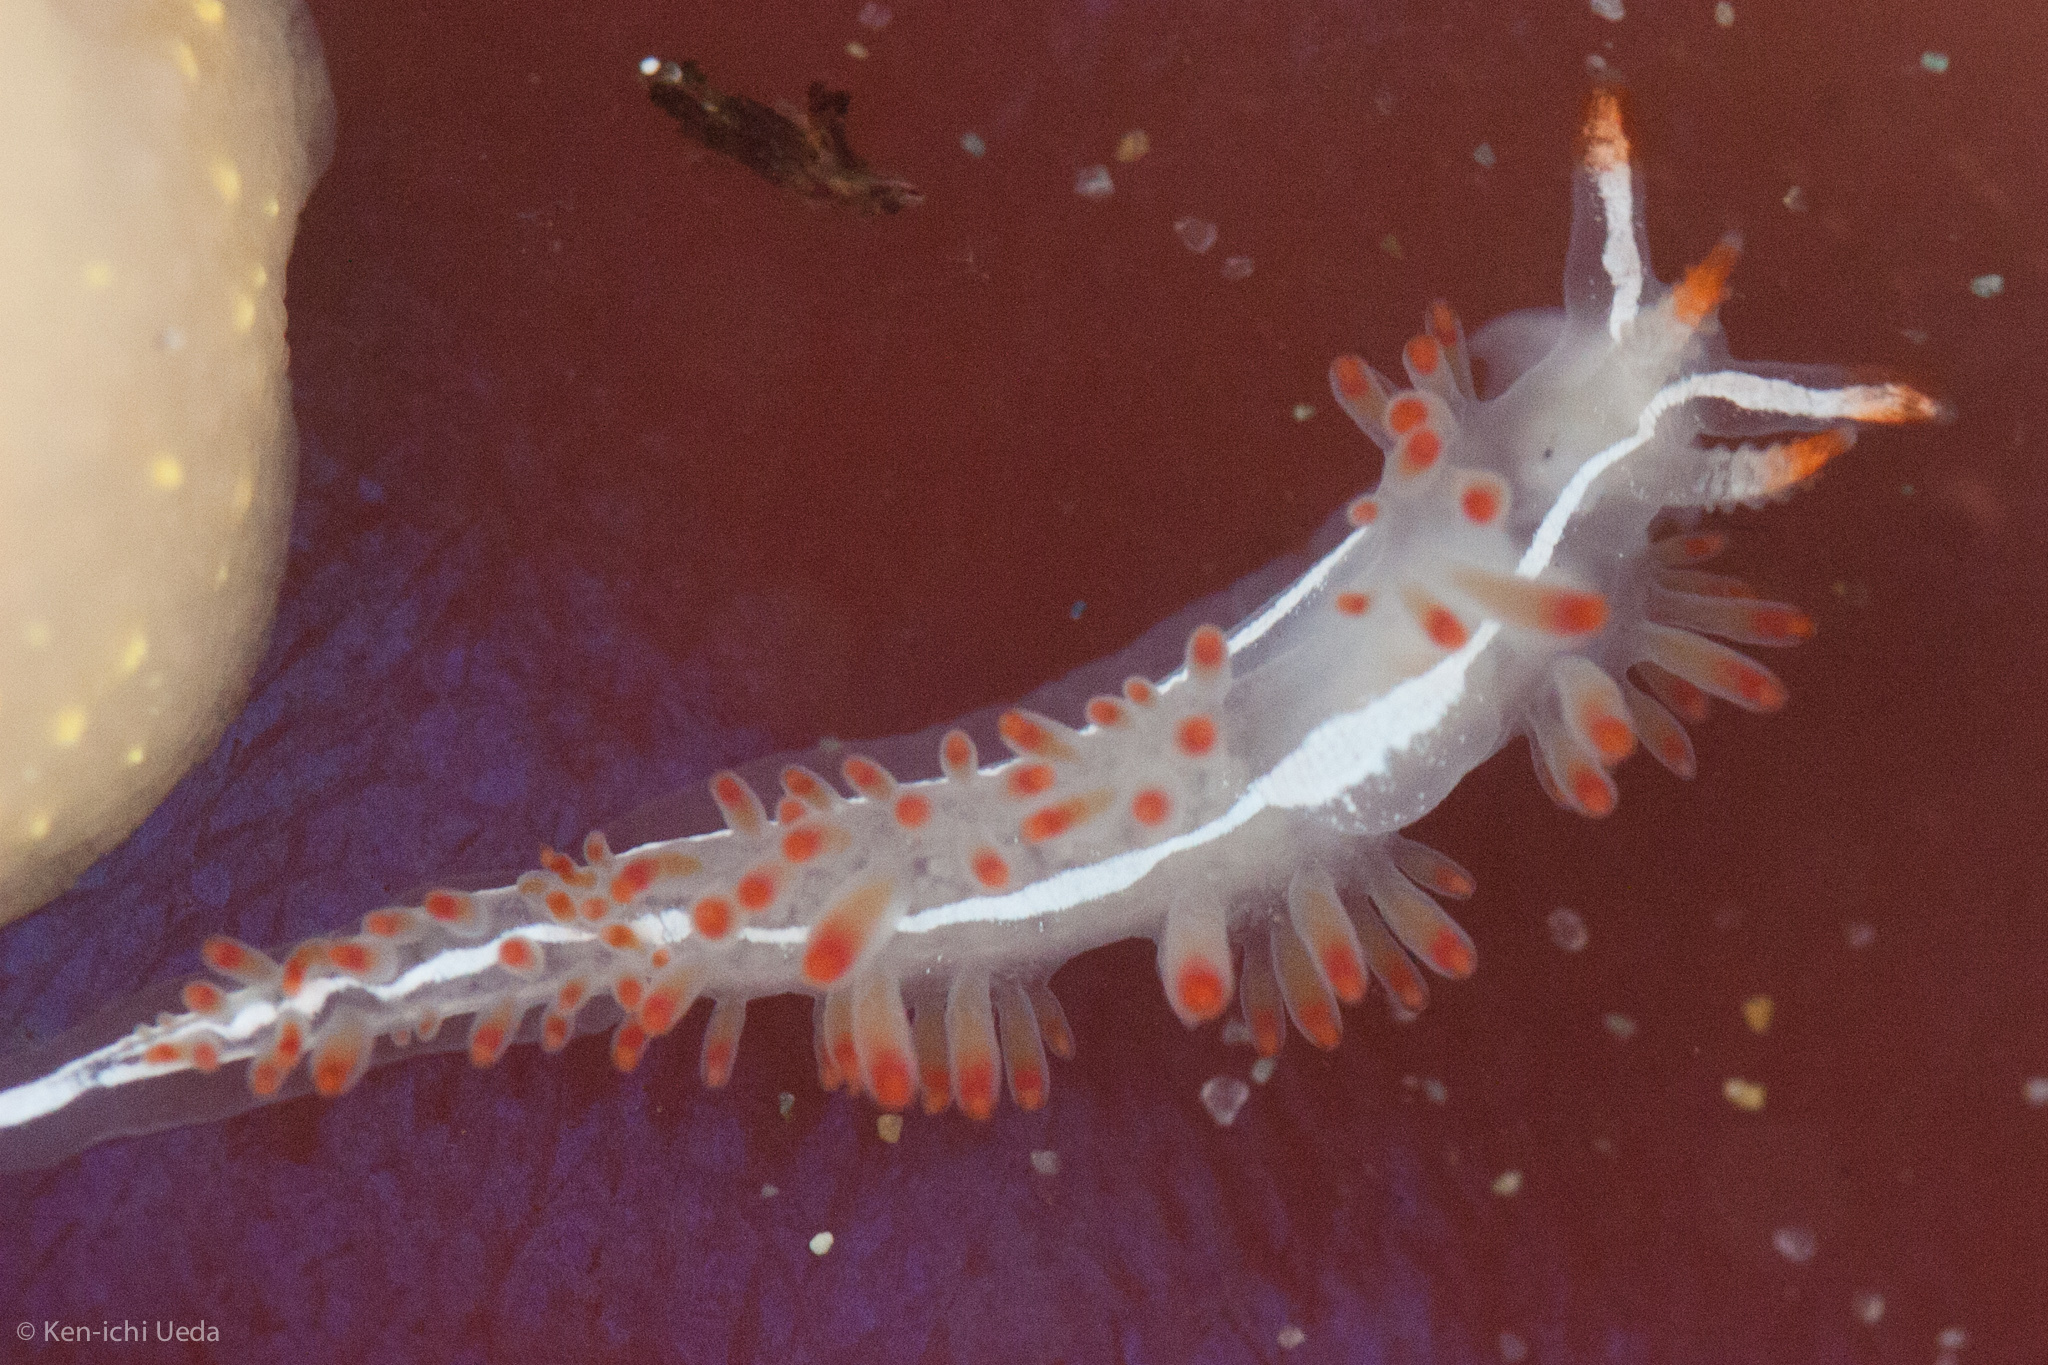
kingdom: Animalia
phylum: Mollusca
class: Gastropoda
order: Nudibranchia
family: Coryphellidae
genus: Coryphella
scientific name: Coryphella trilineata
